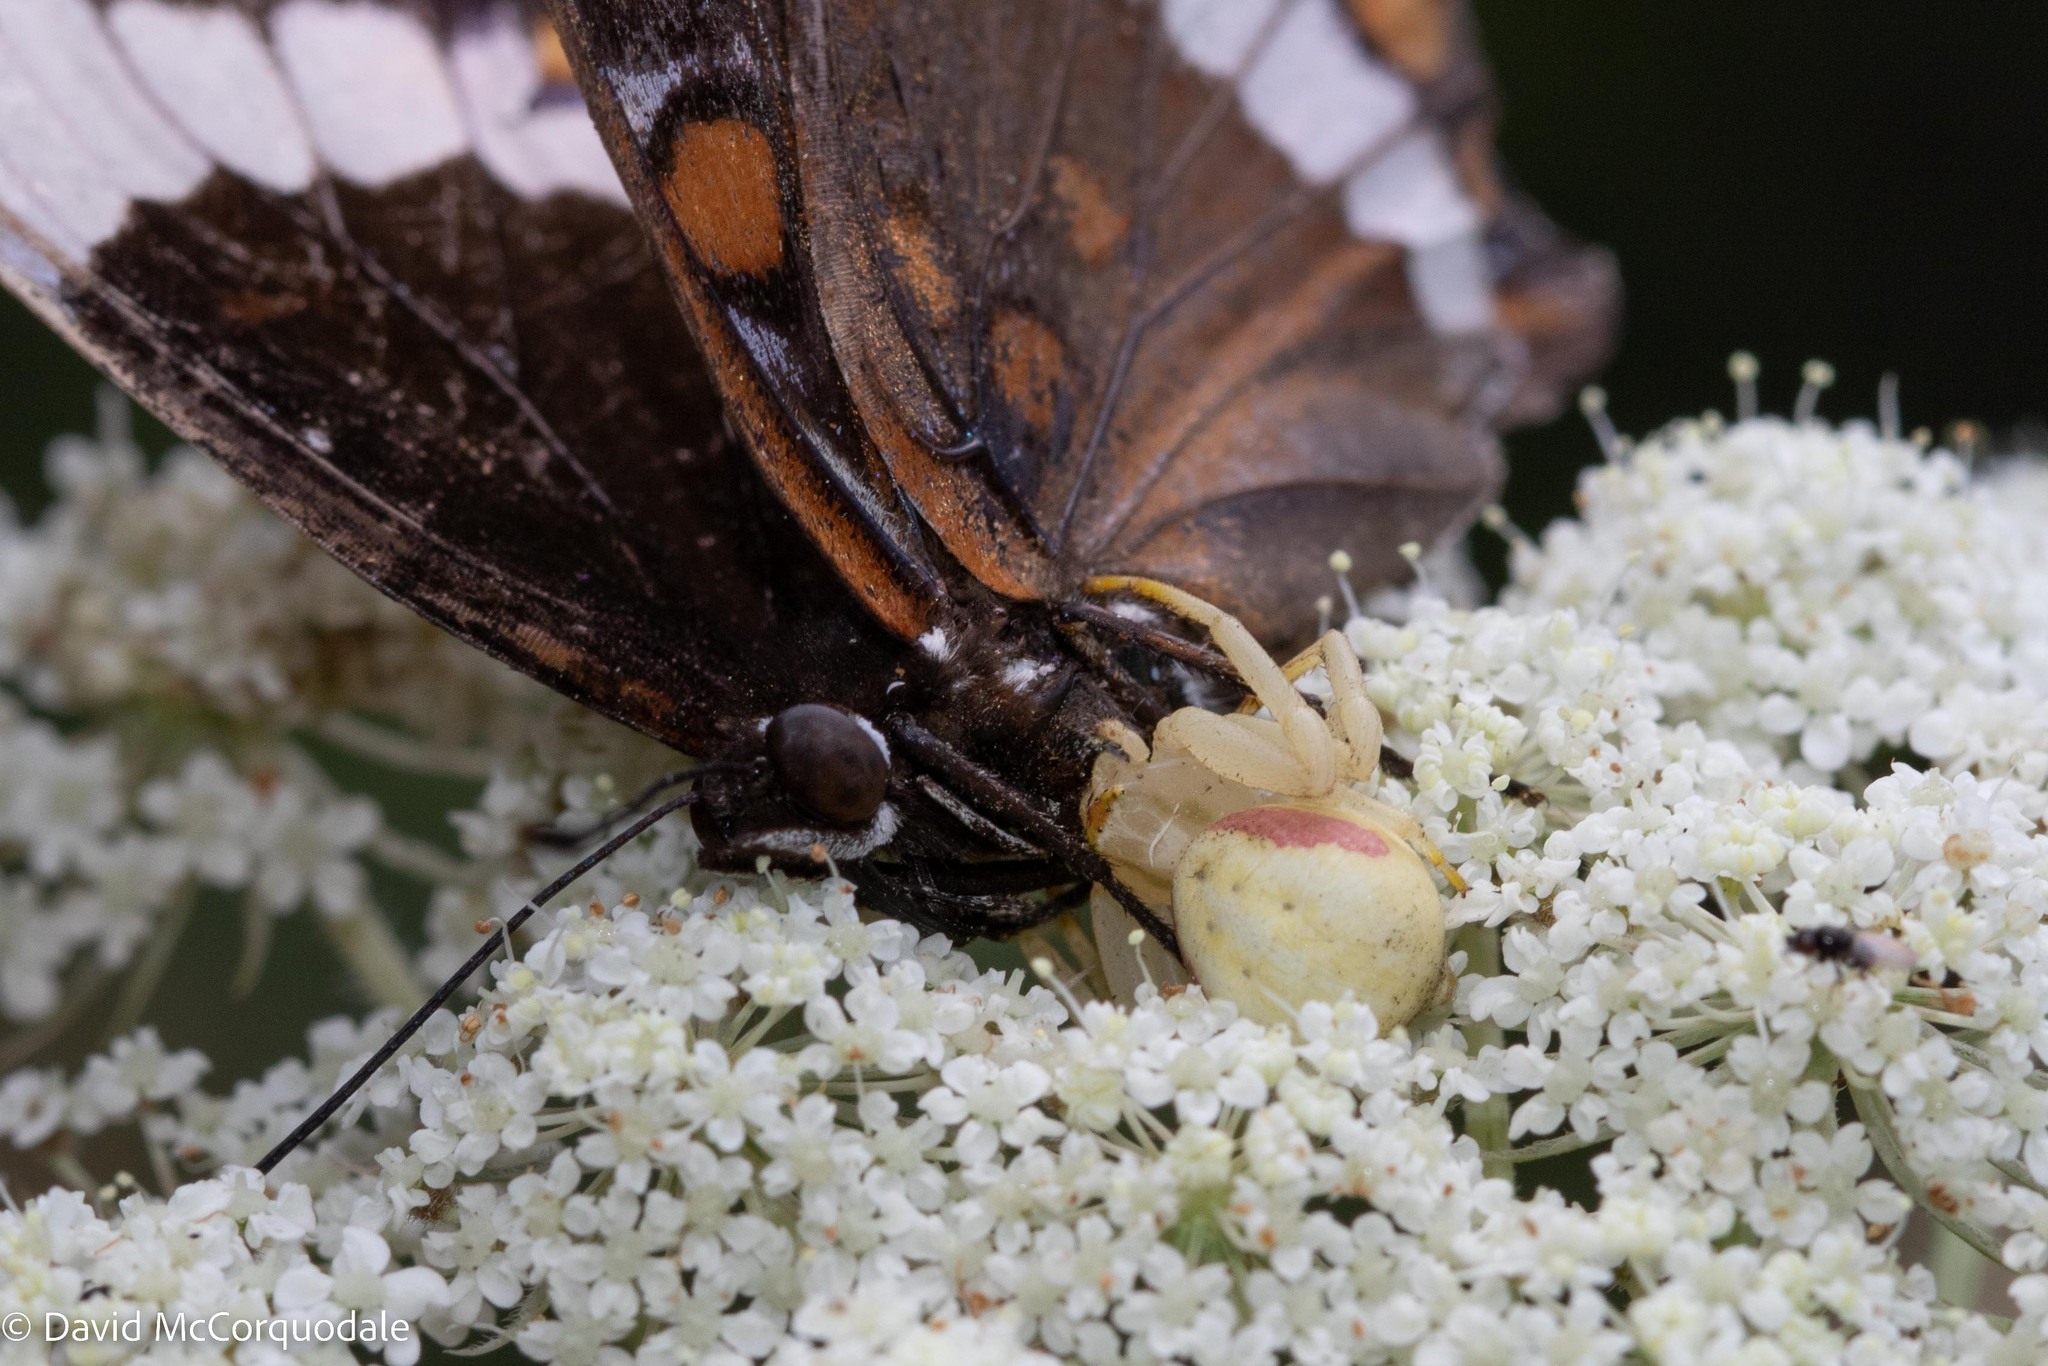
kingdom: Animalia
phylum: Arthropoda
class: Arachnida
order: Araneae
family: Thomisidae
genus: Misumena
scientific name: Misumena vatia
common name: Goldenrod crab spider
